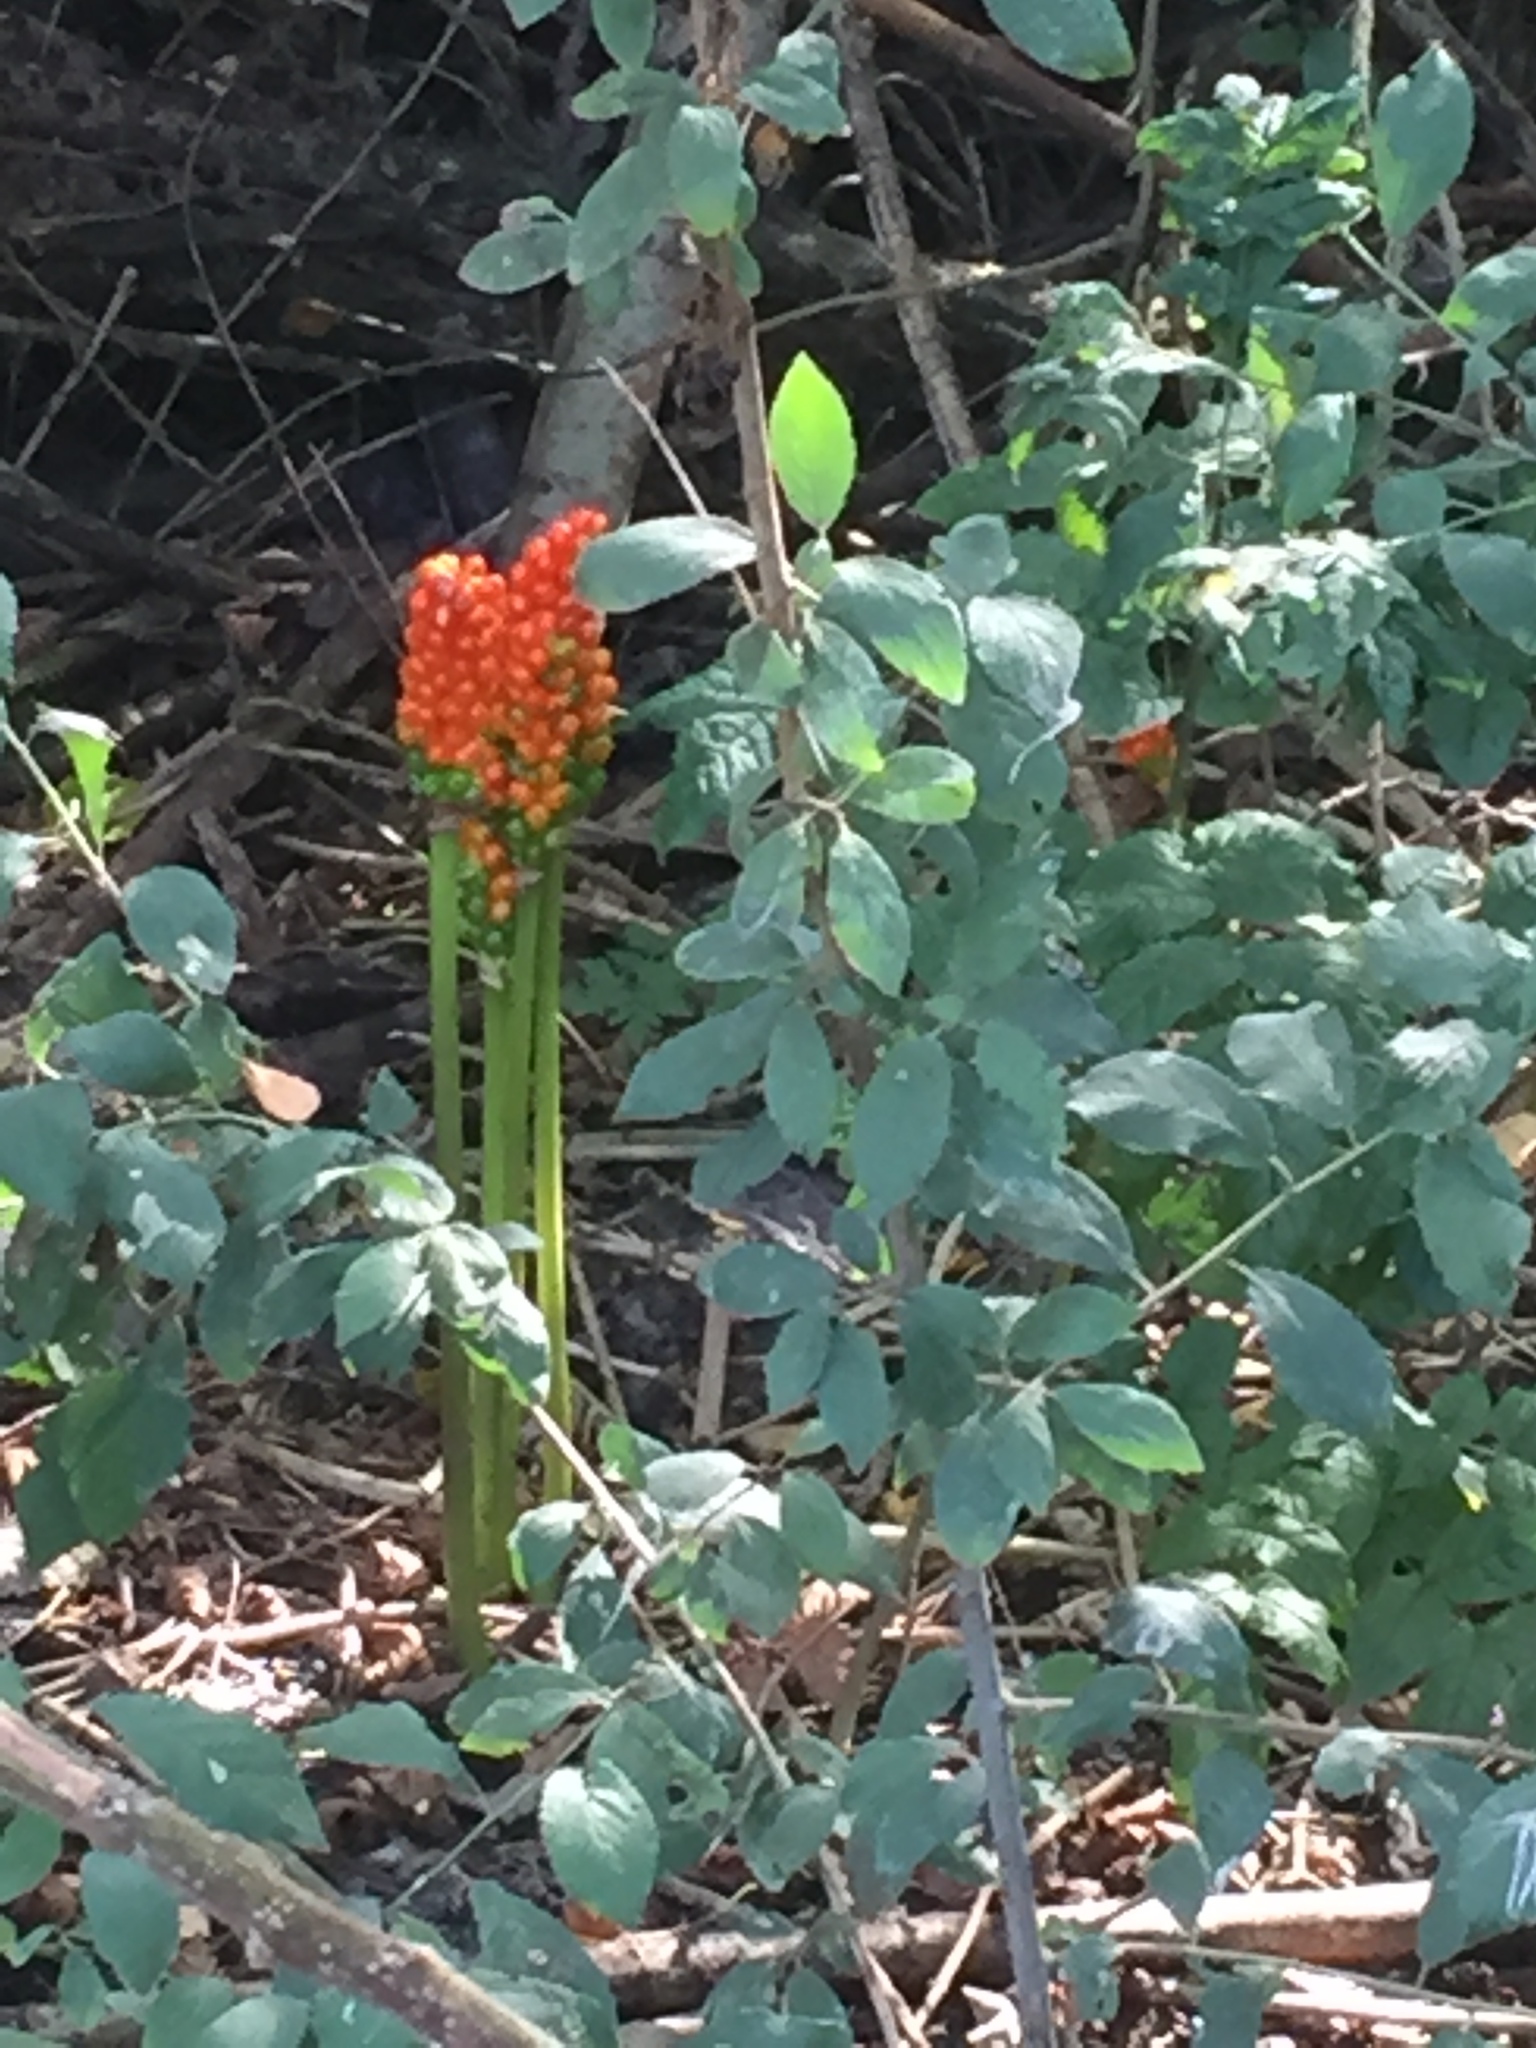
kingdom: Plantae
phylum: Tracheophyta
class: Liliopsida
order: Alismatales
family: Araceae
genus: Arum
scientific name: Arum maculatum
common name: Lords-and-ladies
